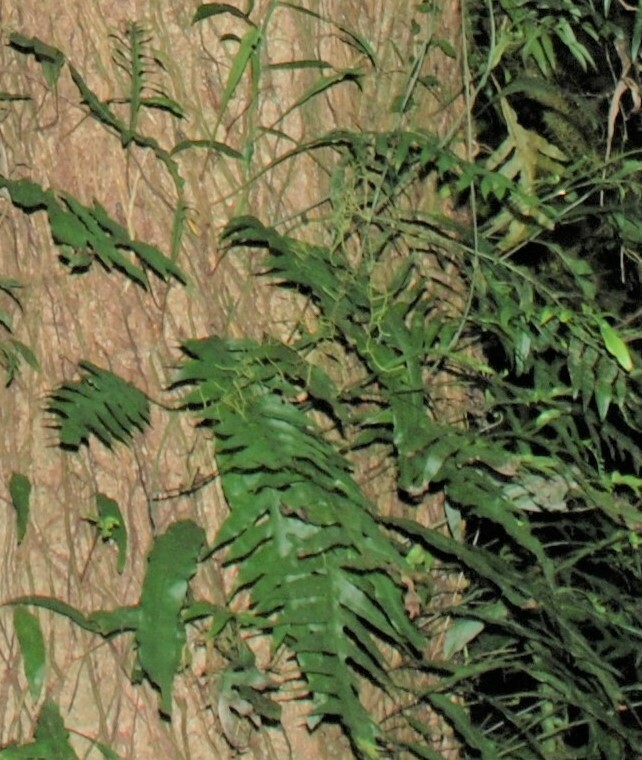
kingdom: Plantae
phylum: Tracheophyta
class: Polypodiopsida
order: Polypodiales
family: Polypodiaceae
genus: Lecanopteris
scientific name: Lecanopteris scandens
